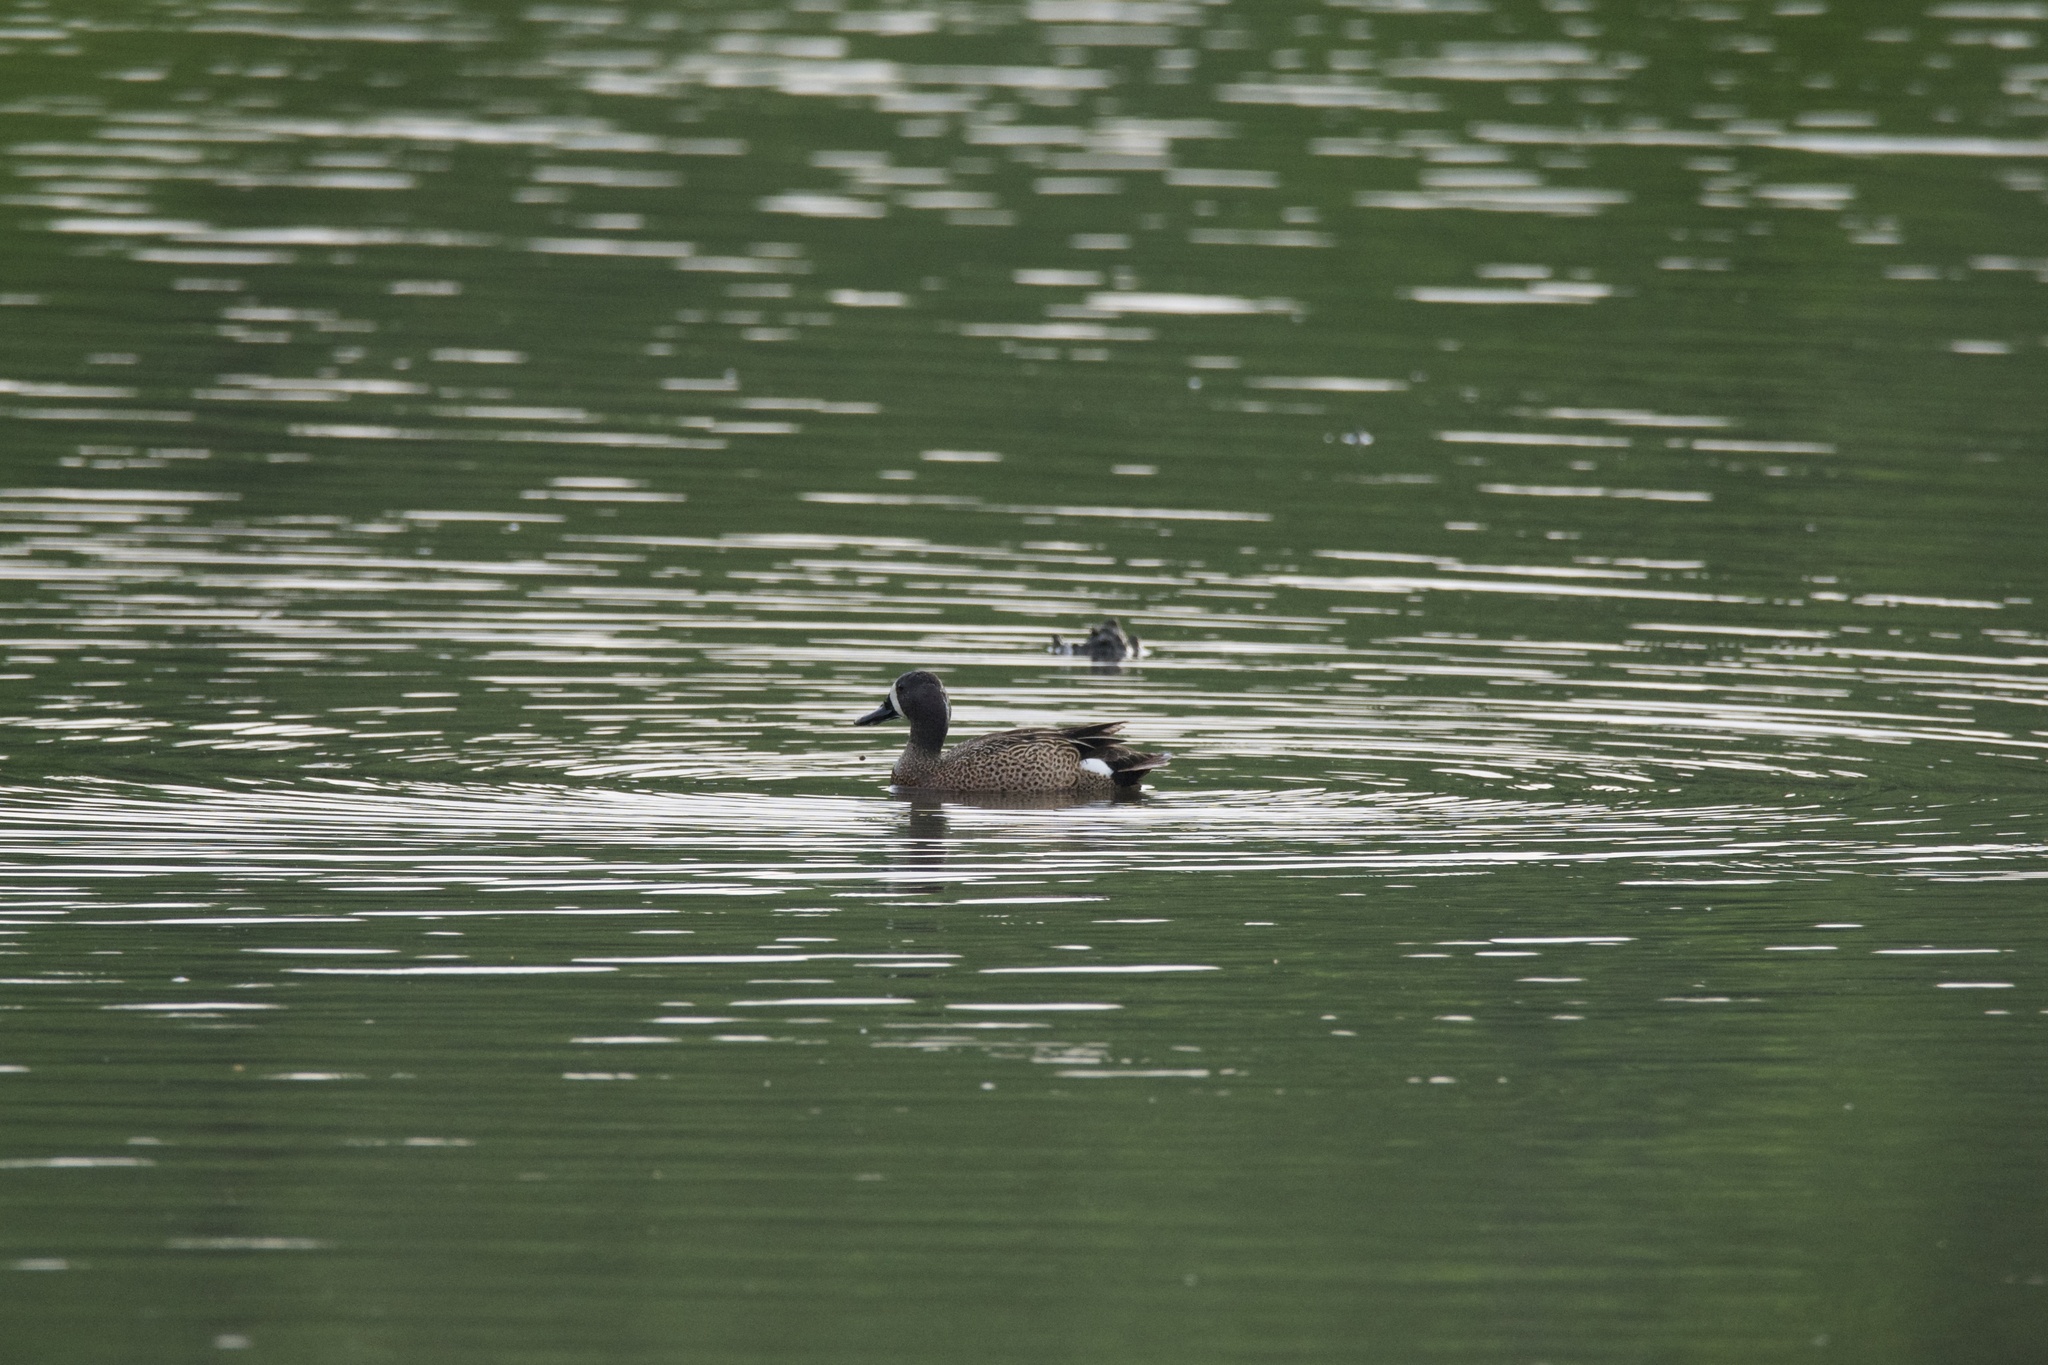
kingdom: Animalia
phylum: Chordata
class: Aves
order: Anseriformes
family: Anatidae
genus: Spatula
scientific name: Spatula discors
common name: Blue-winged teal
